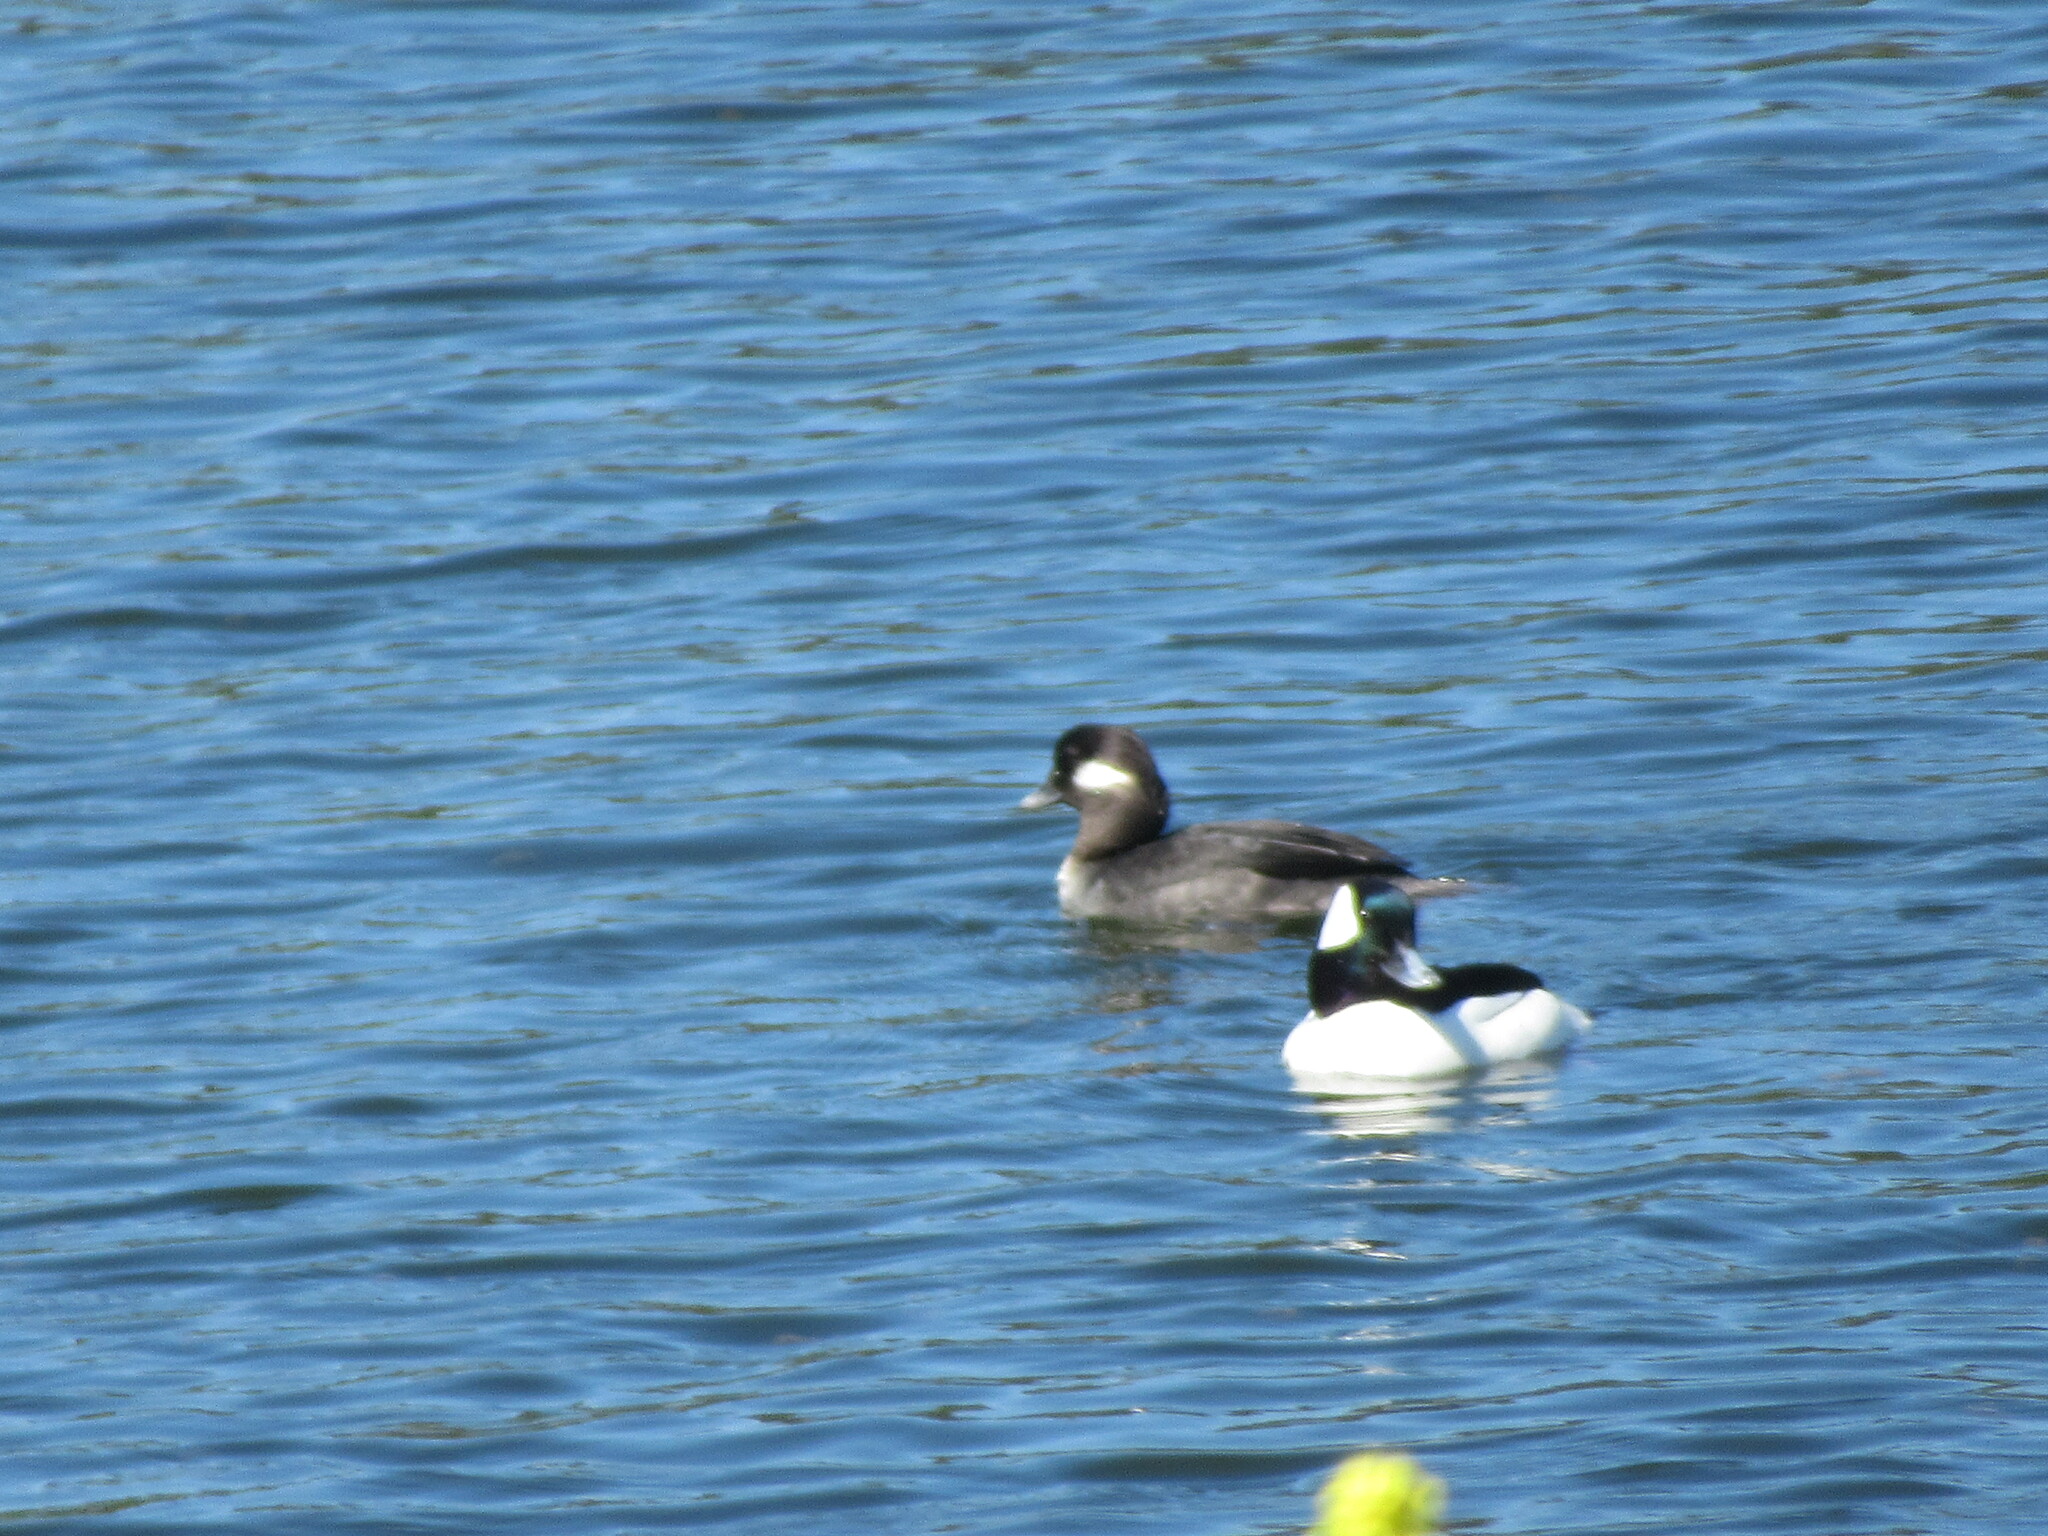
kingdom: Animalia
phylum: Chordata
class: Aves
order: Anseriformes
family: Anatidae
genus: Bucephala
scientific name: Bucephala albeola
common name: Bufflehead
